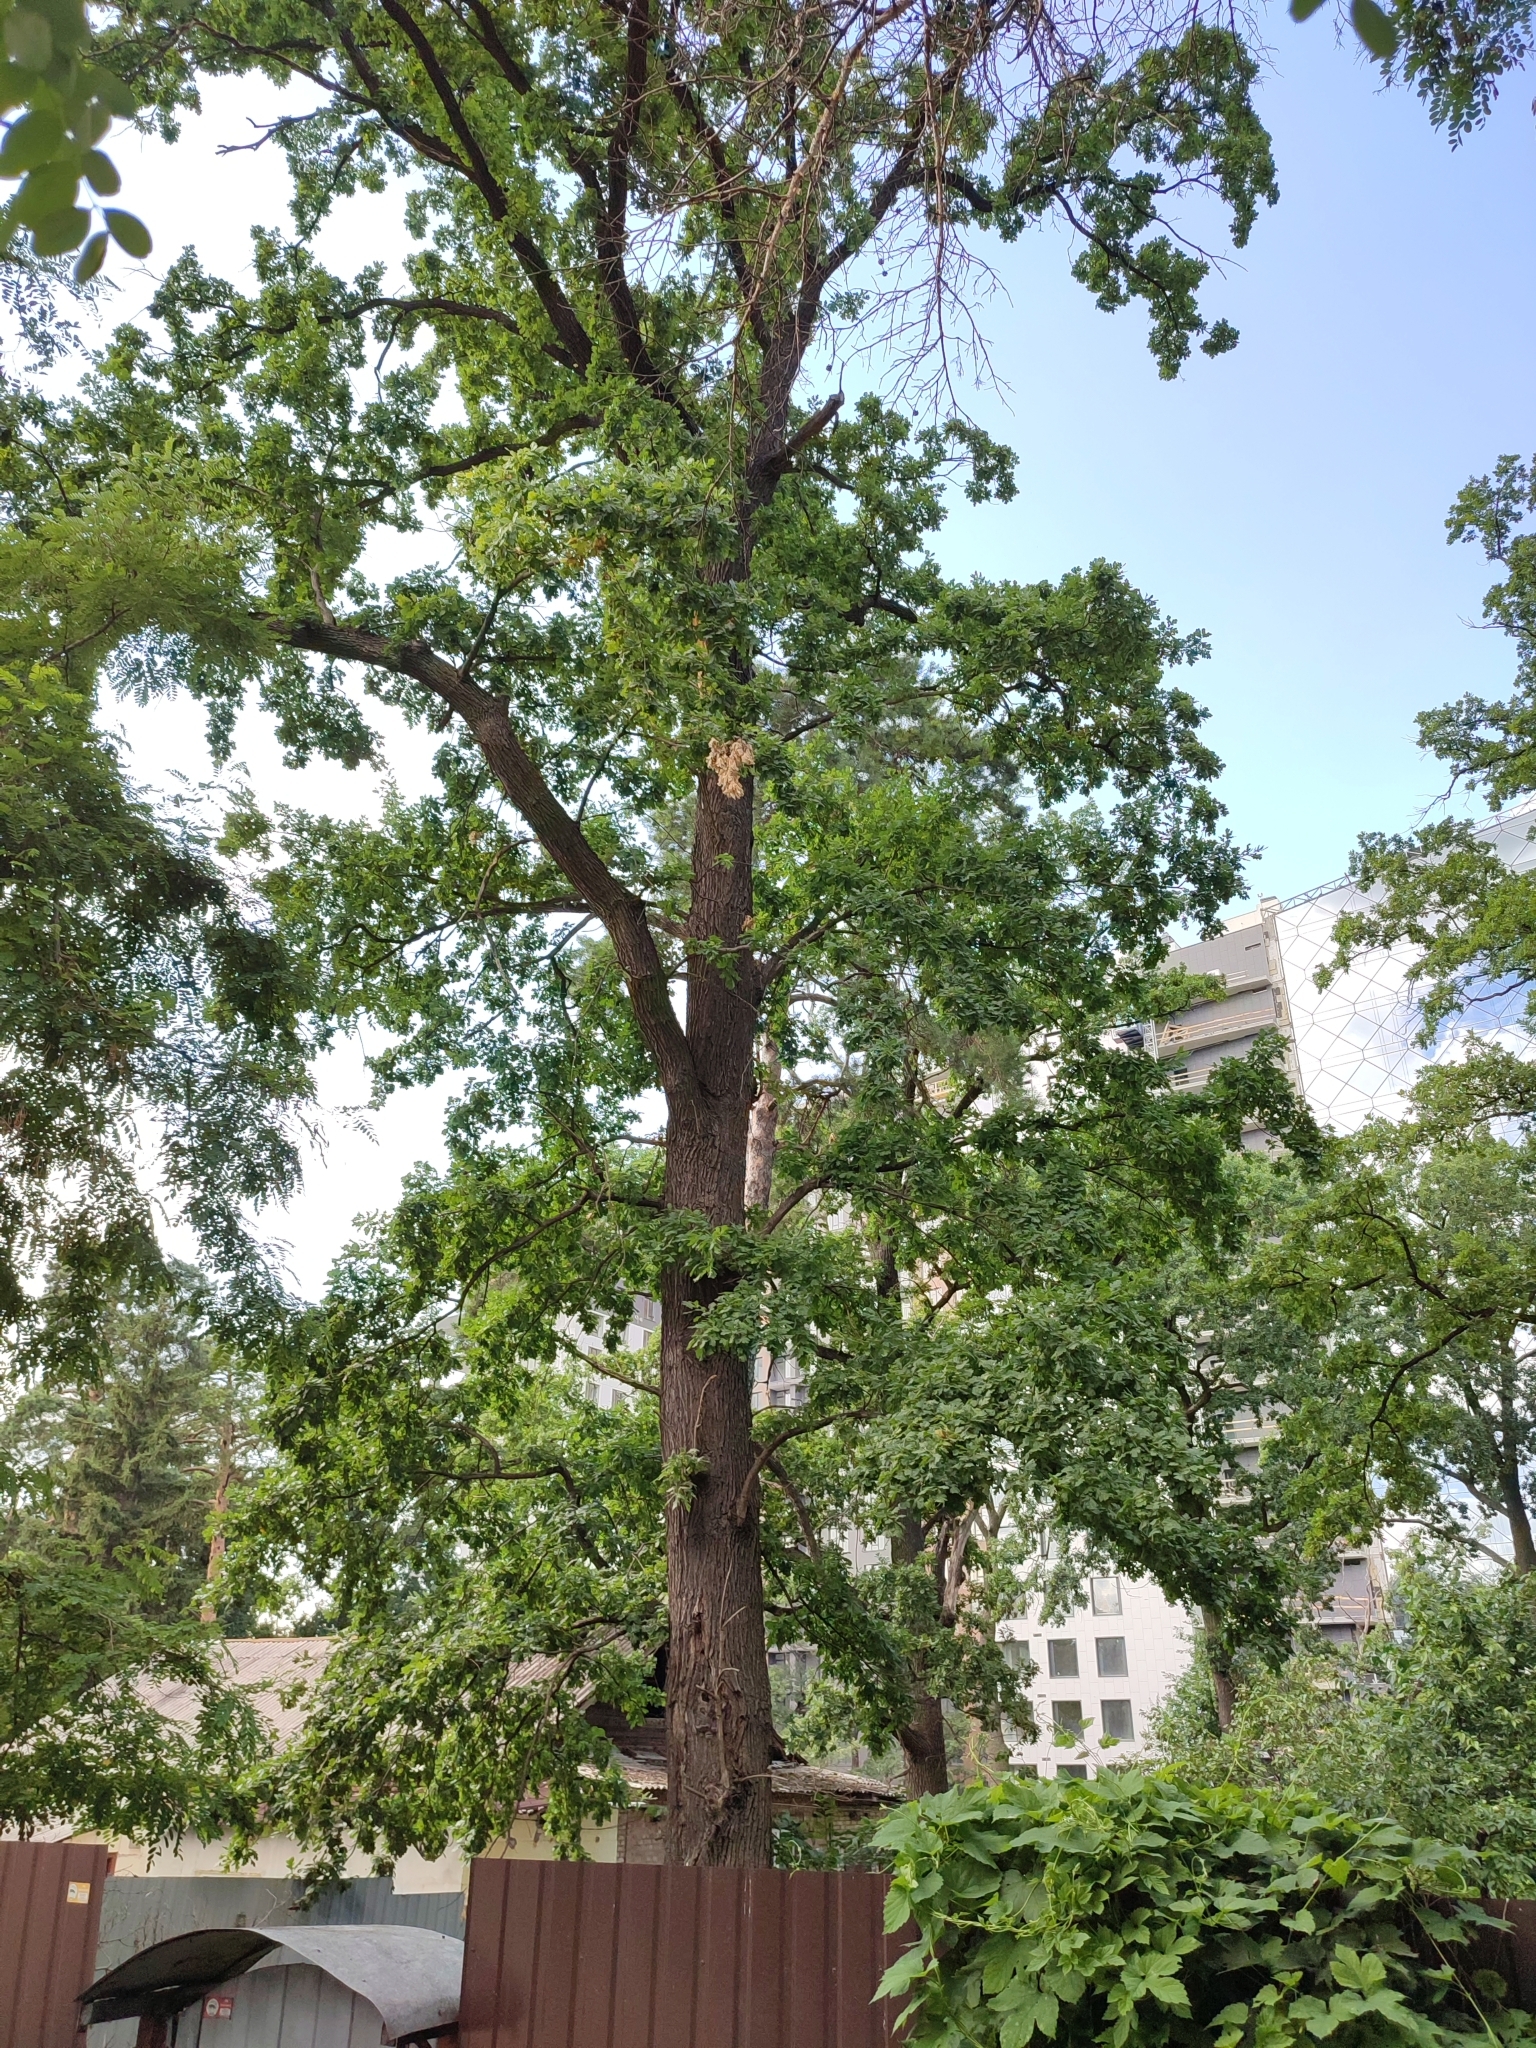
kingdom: Plantae
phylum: Tracheophyta
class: Magnoliopsida
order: Fagales
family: Fagaceae
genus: Quercus
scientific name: Quercus robur
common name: Pedunculate oak
